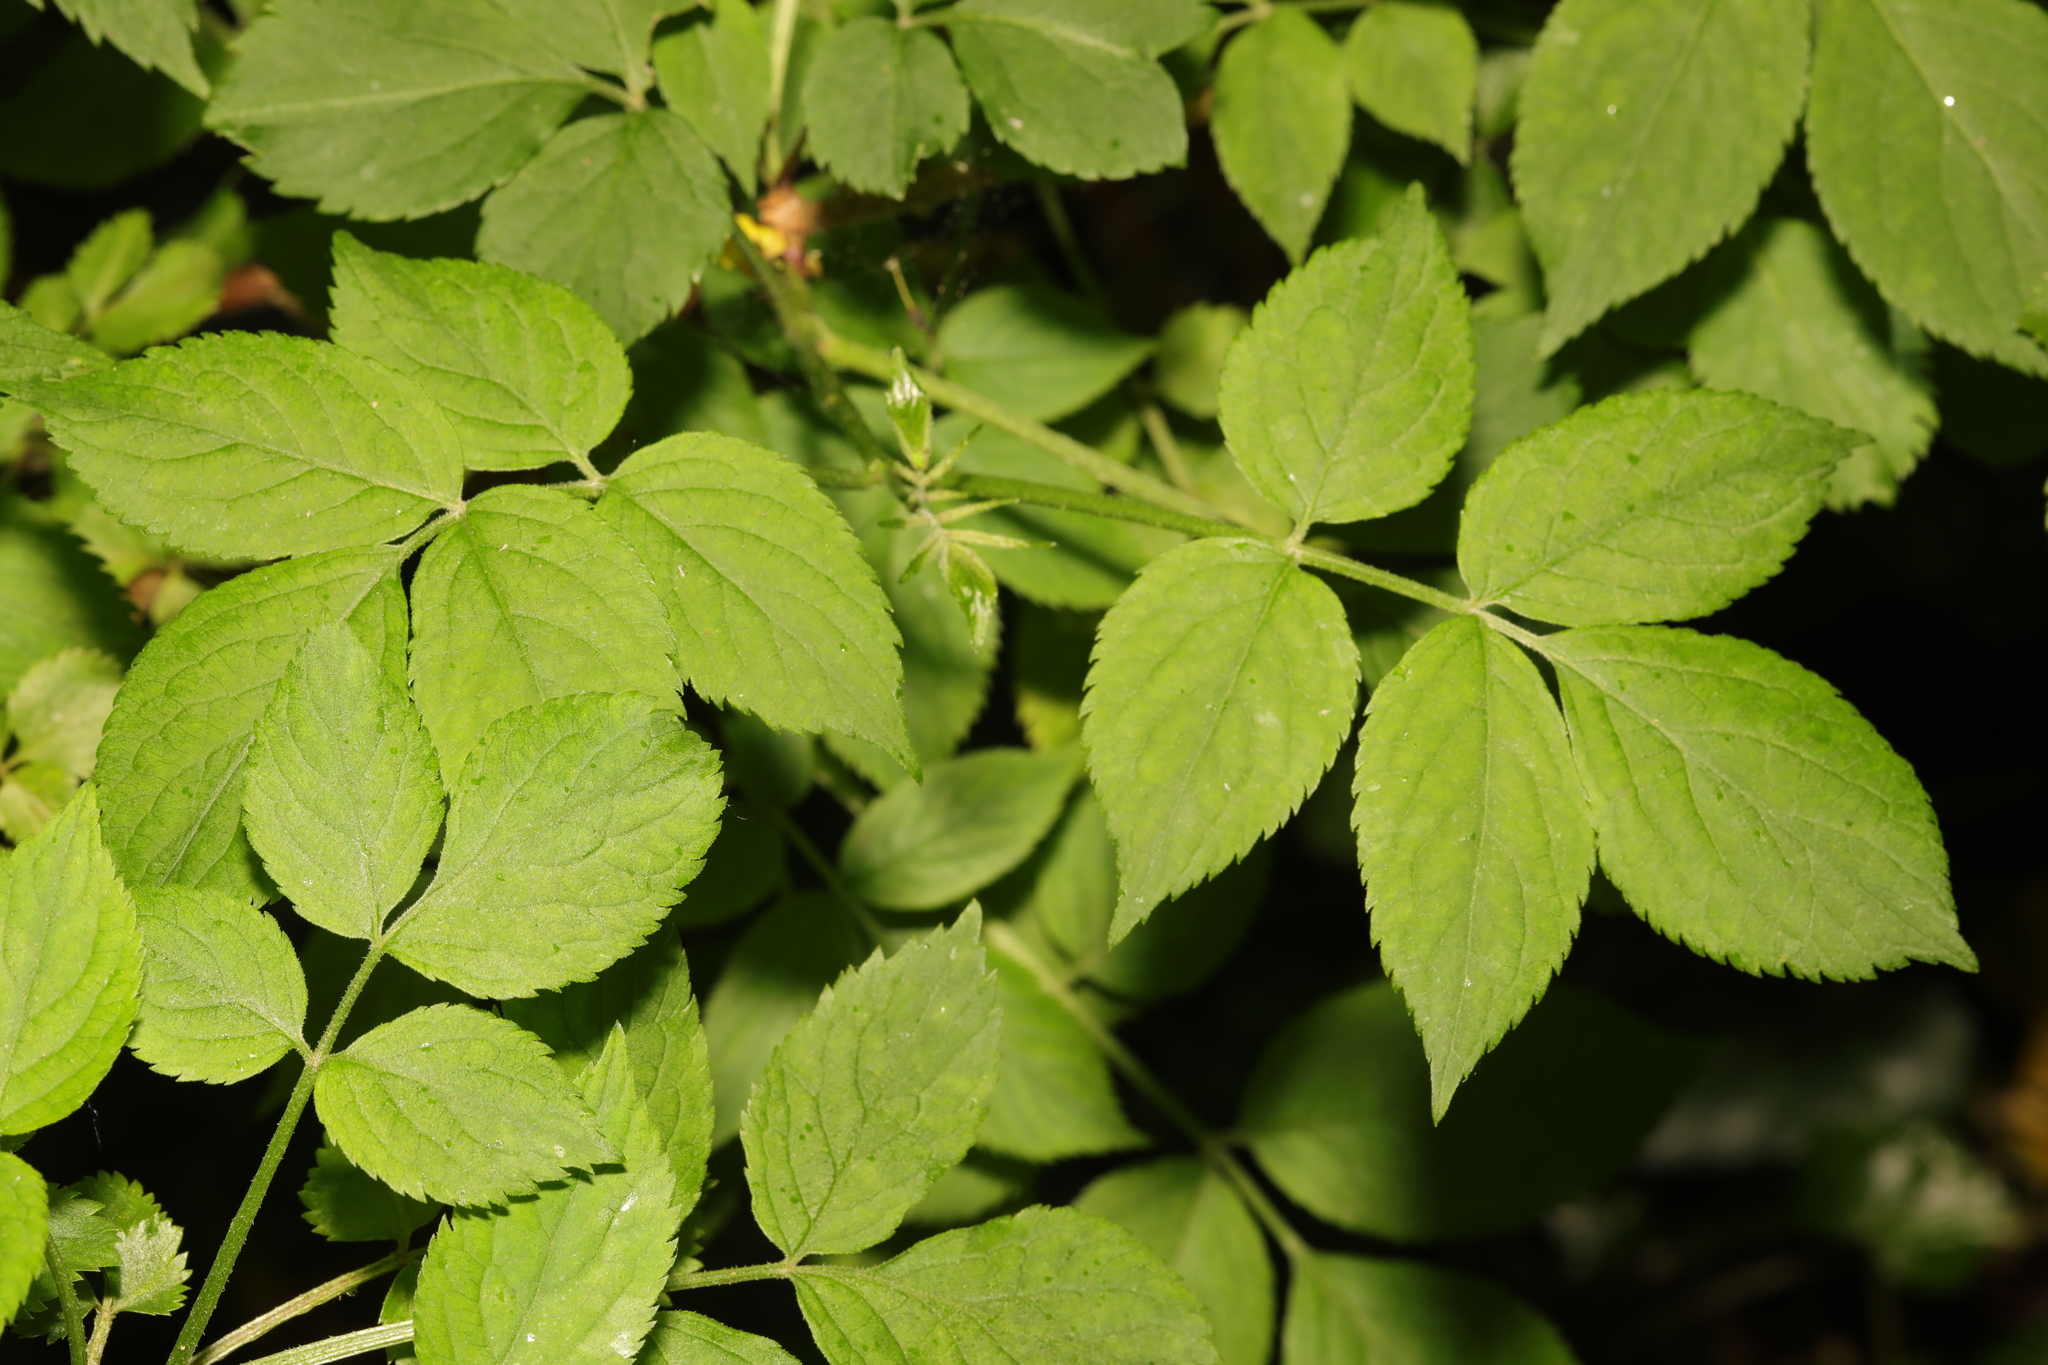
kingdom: Plantae
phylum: Tracheophyta
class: Magnoliopsida
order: Dipsacales
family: Viburnaceae
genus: Sambucus
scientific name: Sambucus nigra
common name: Elder
